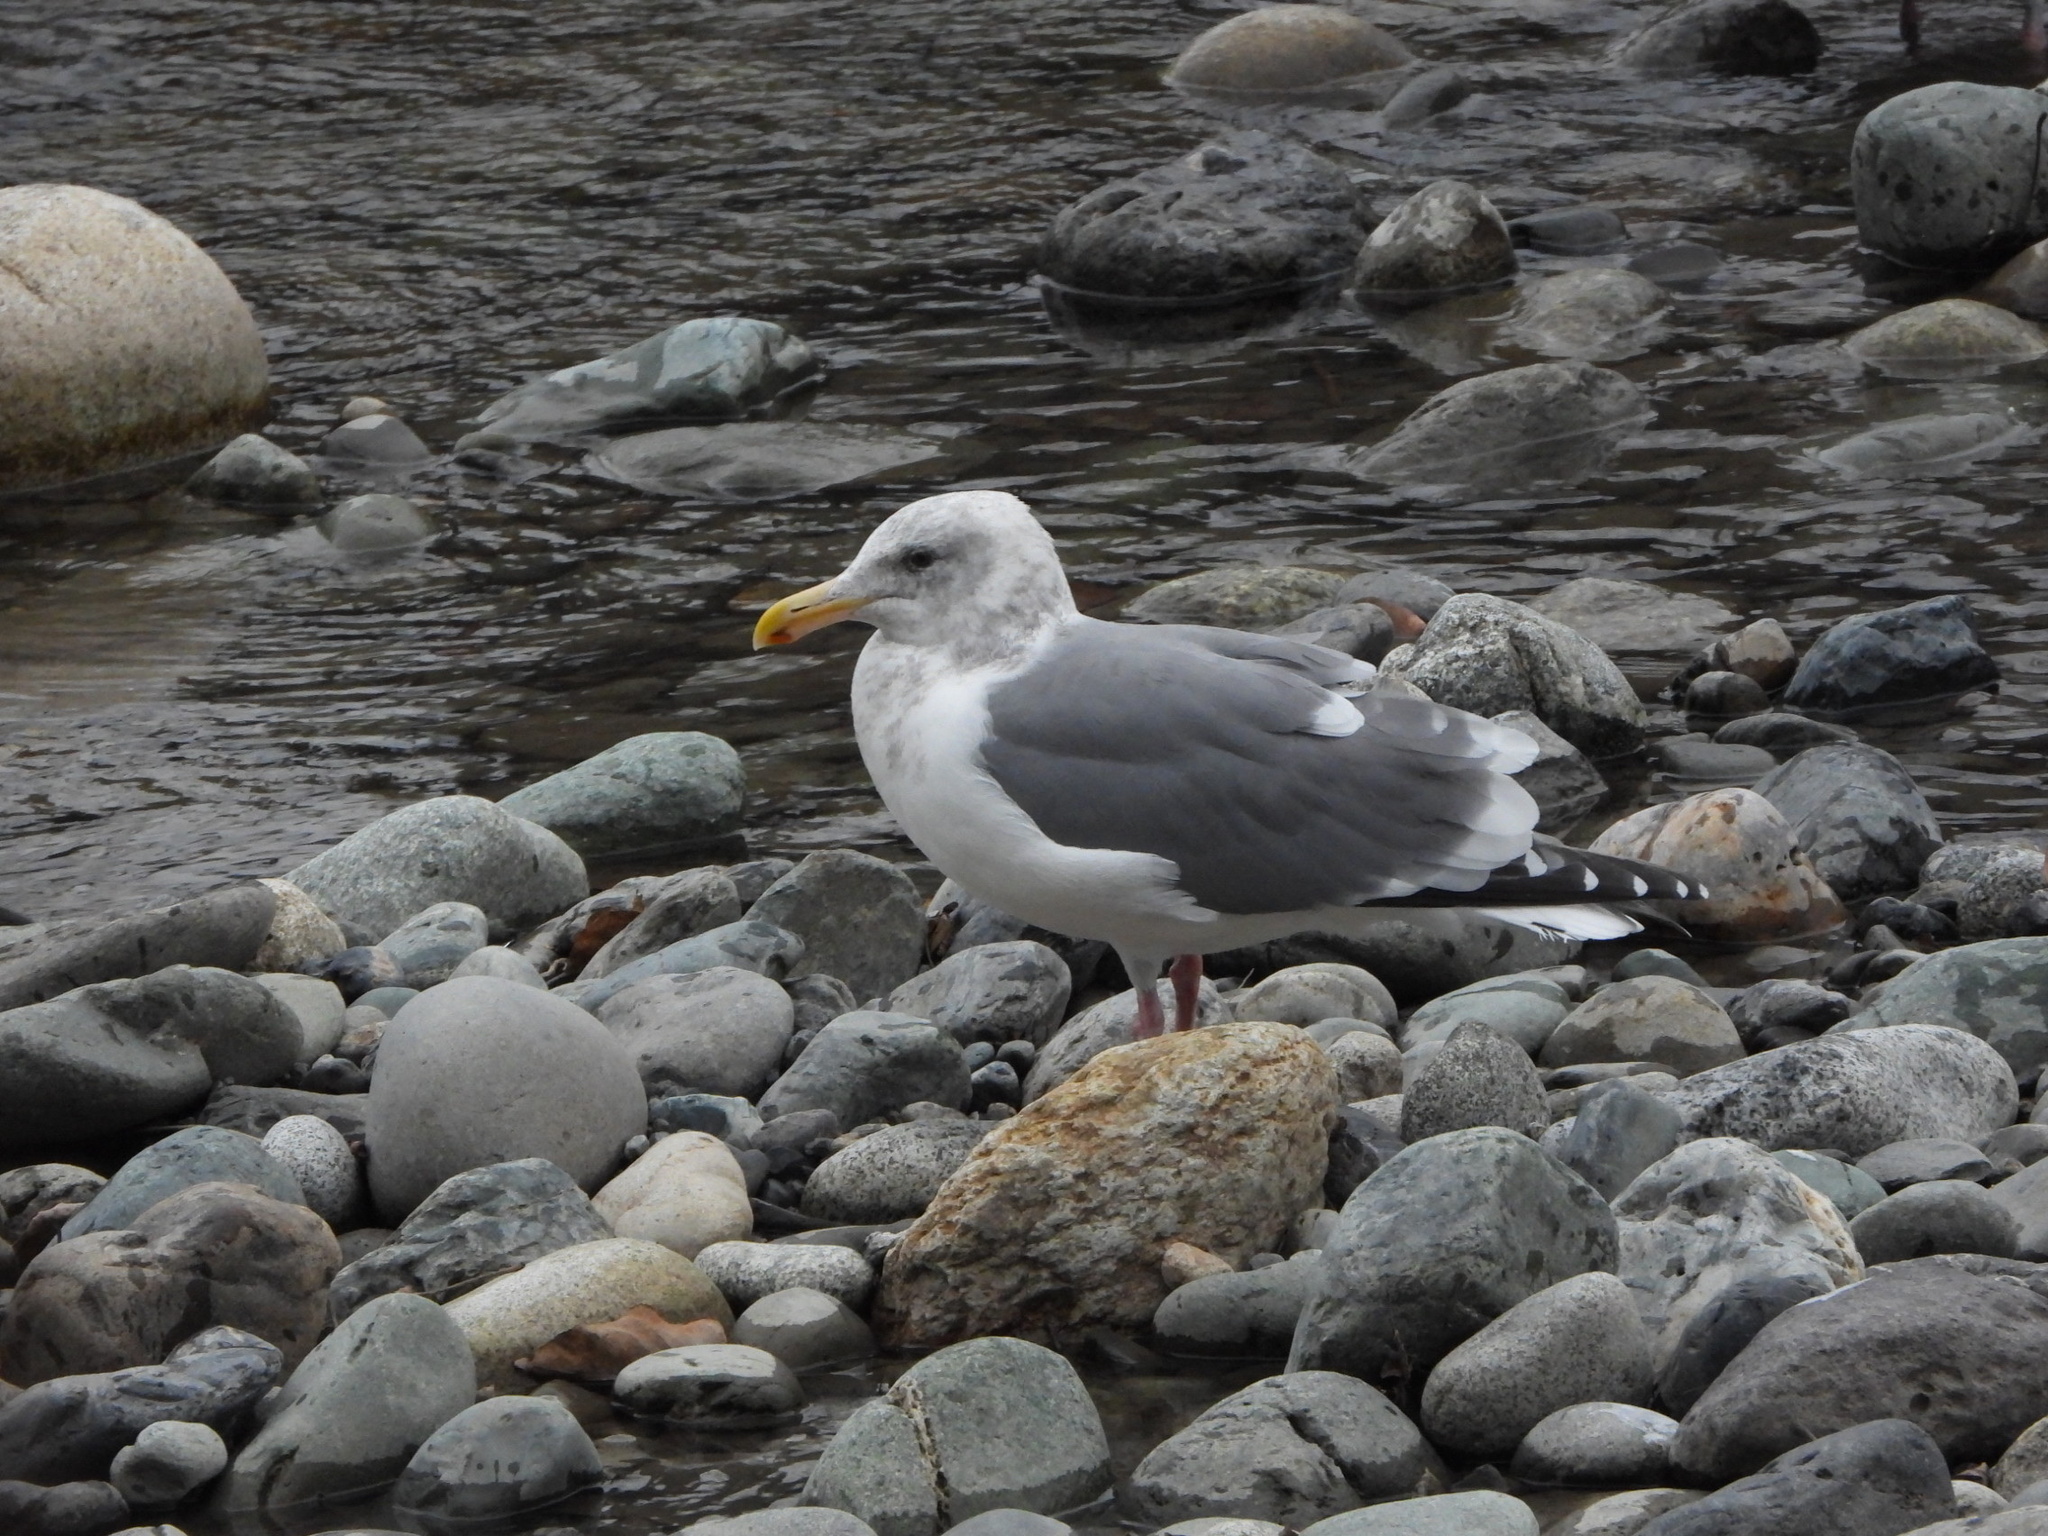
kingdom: Animalia
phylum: Chordata
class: Aves
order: Charadriiformes
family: Laridae
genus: Larus
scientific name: Larus
